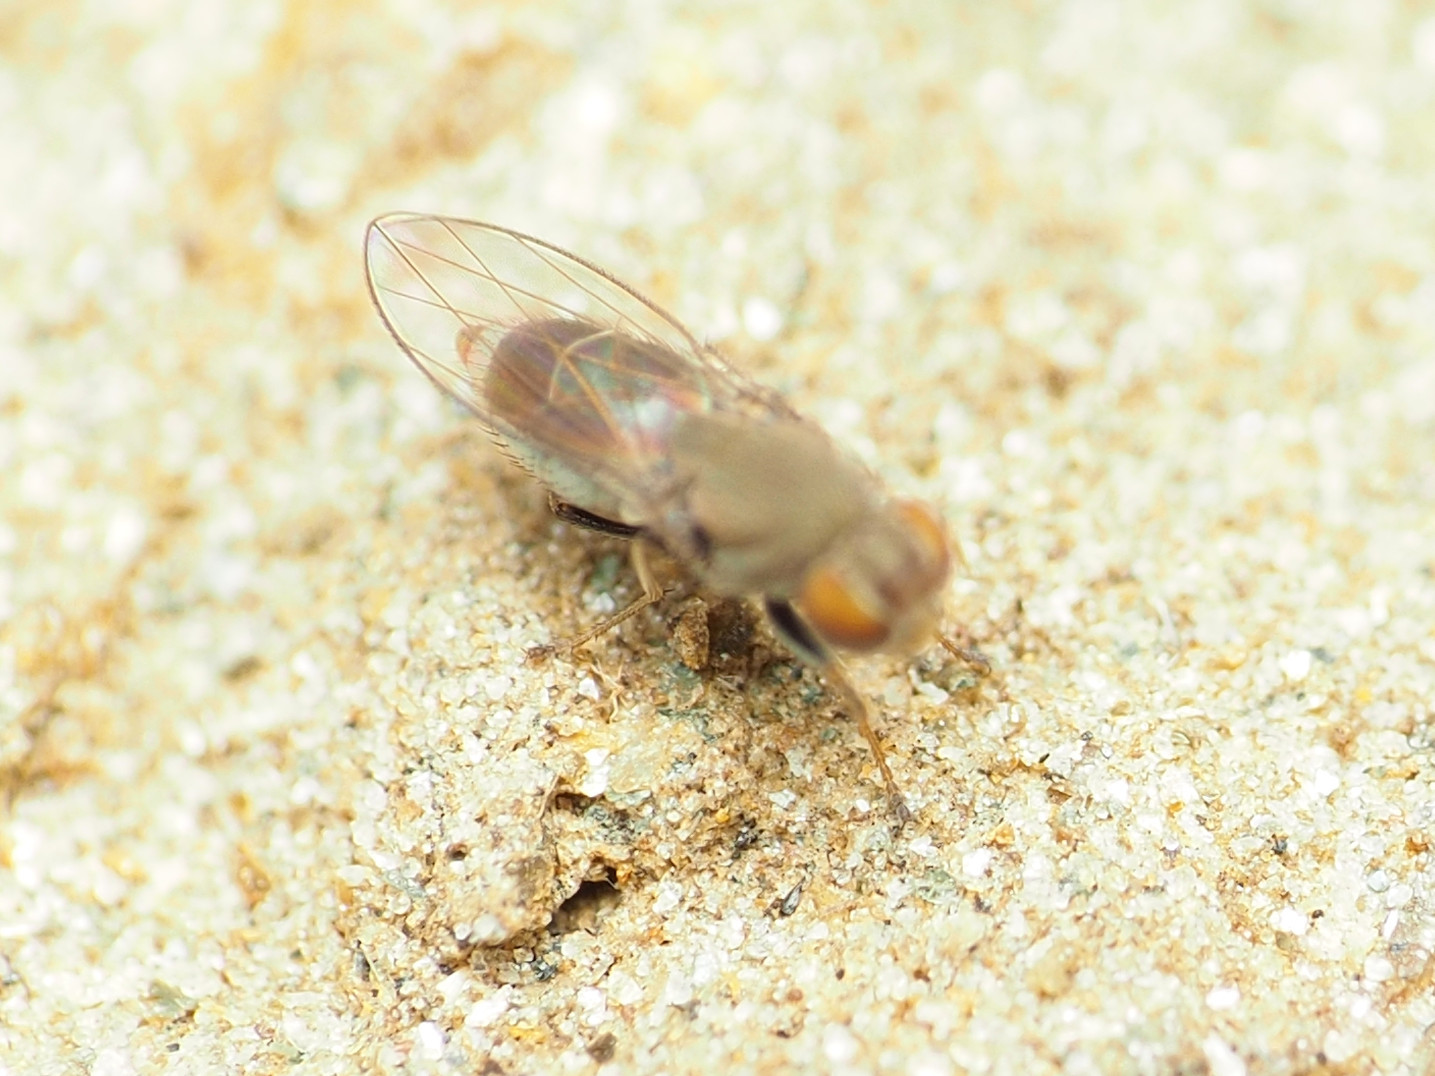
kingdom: Animalia
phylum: Arthropoda
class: Insecta
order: Diptera
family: Ephydridae
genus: Aquachasma
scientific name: Aquachasma leucoproctum
